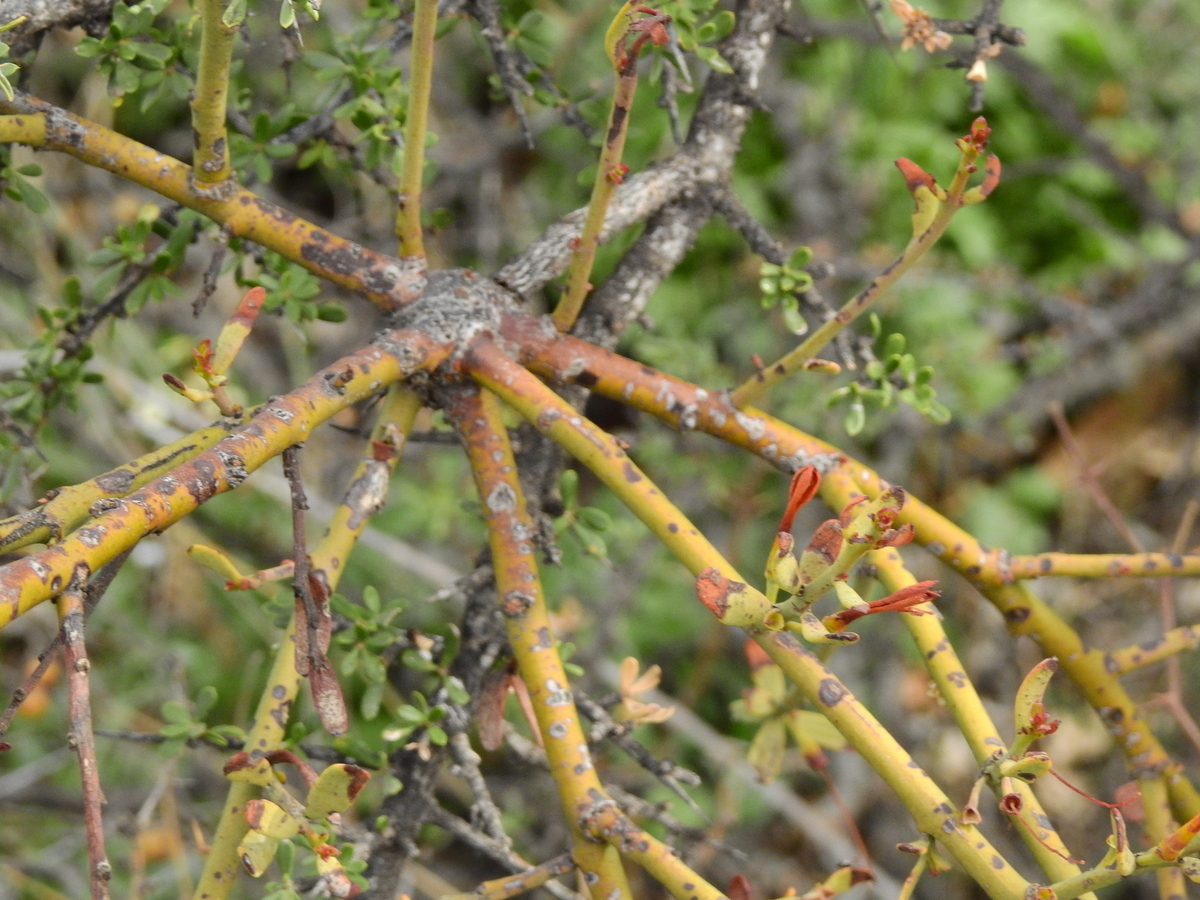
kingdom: Plantae
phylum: Tracheophyta
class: Magnoliopsida
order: Santalales
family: Loranthaceae
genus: Ligaria
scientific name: Ligaria cuneifolia
